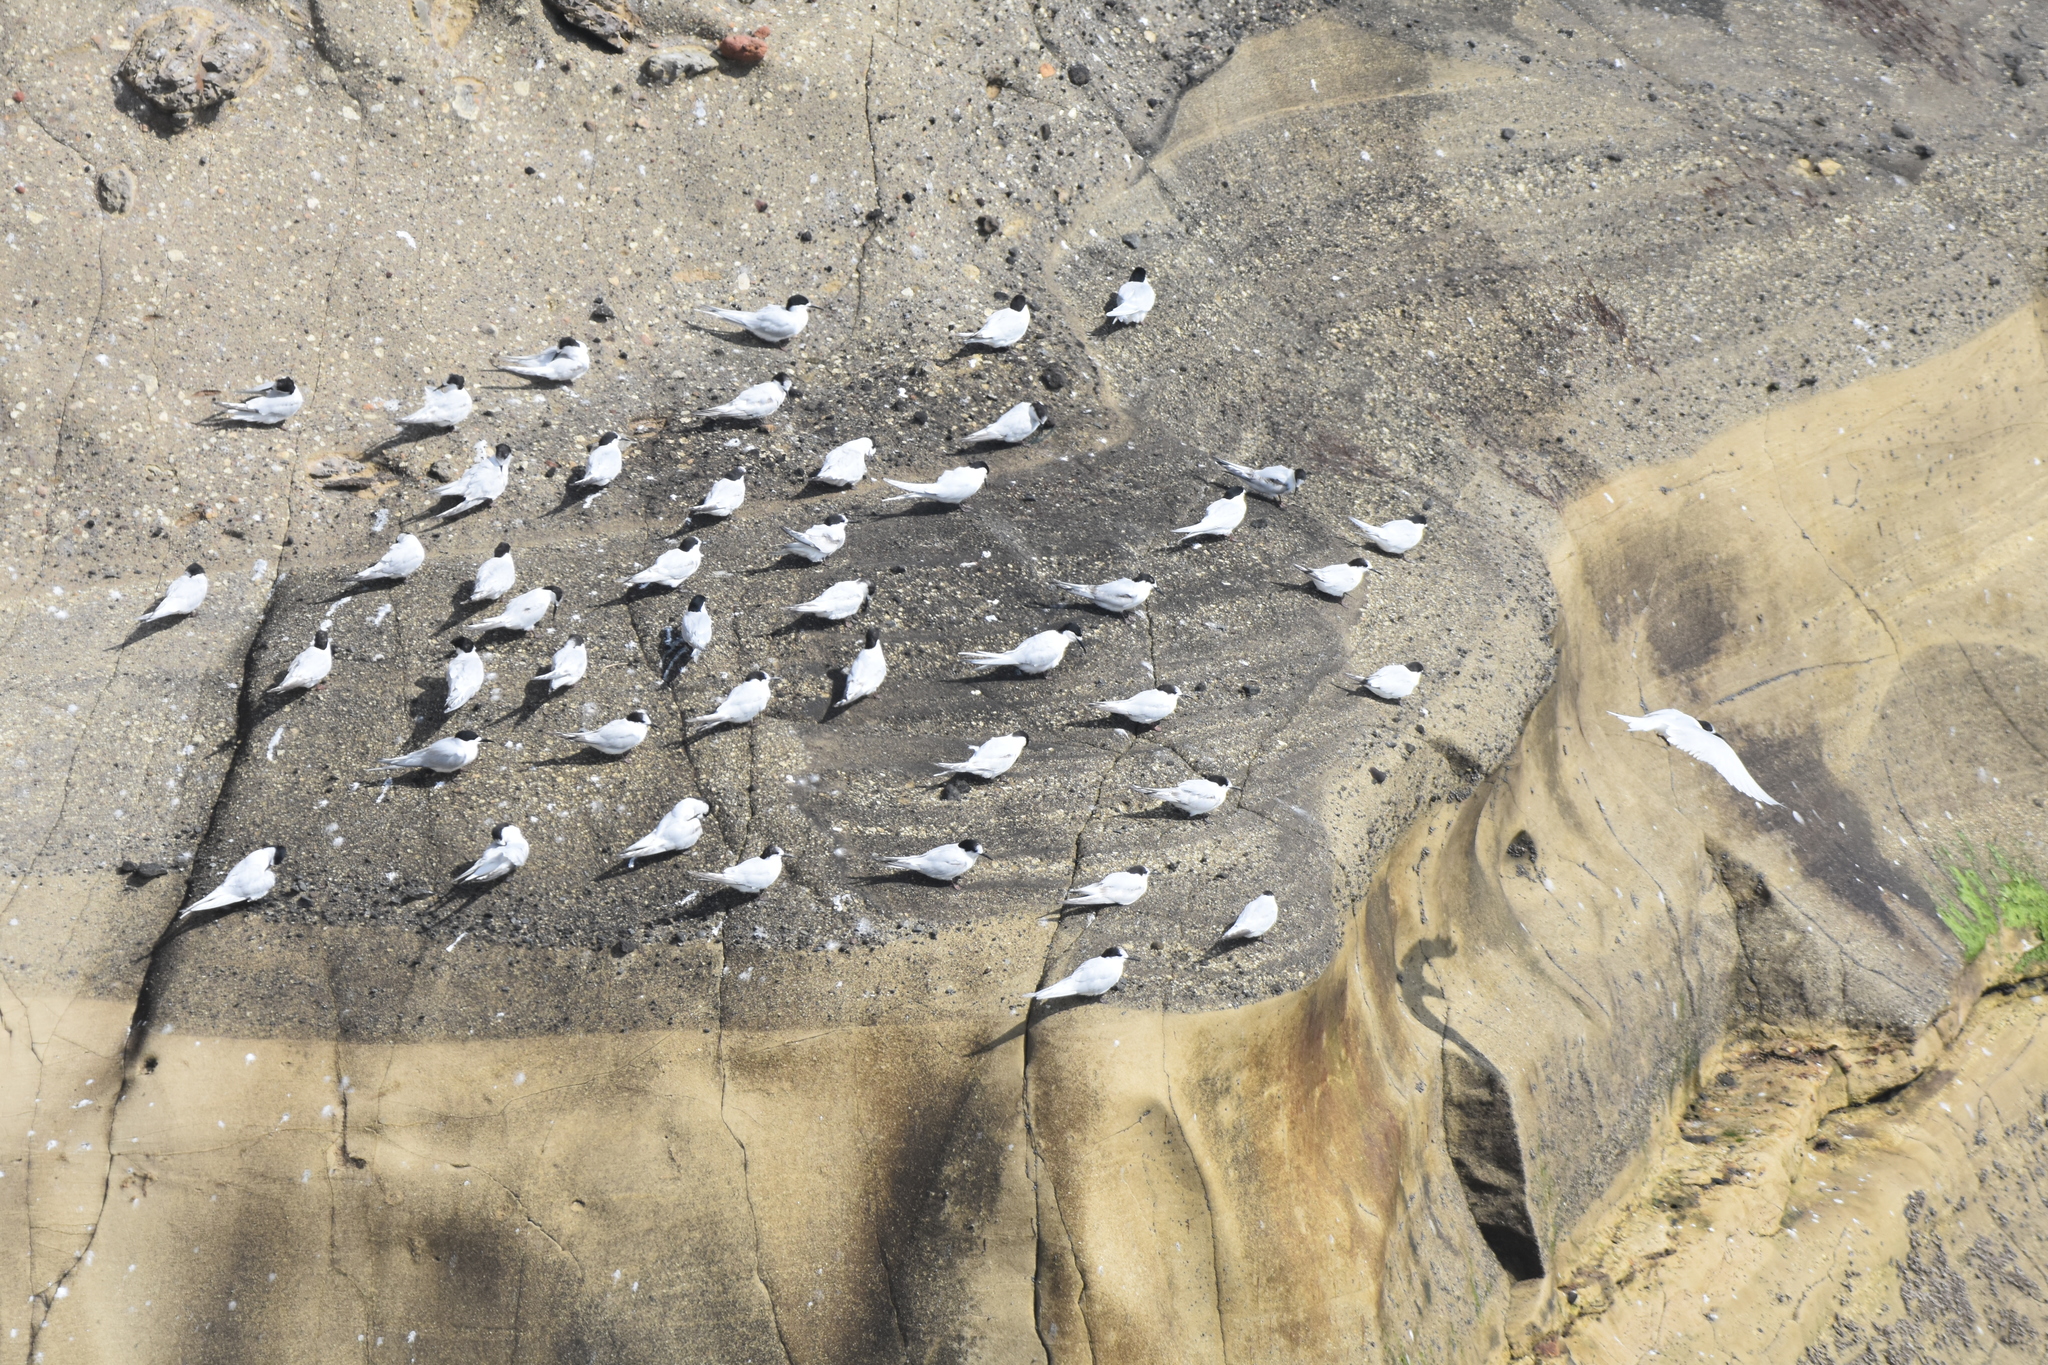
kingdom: Animalia
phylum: Chordata
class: Aves
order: Charadriiformes
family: Laridae
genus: Sterna
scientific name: Sterna striata
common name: White-fronted tern
